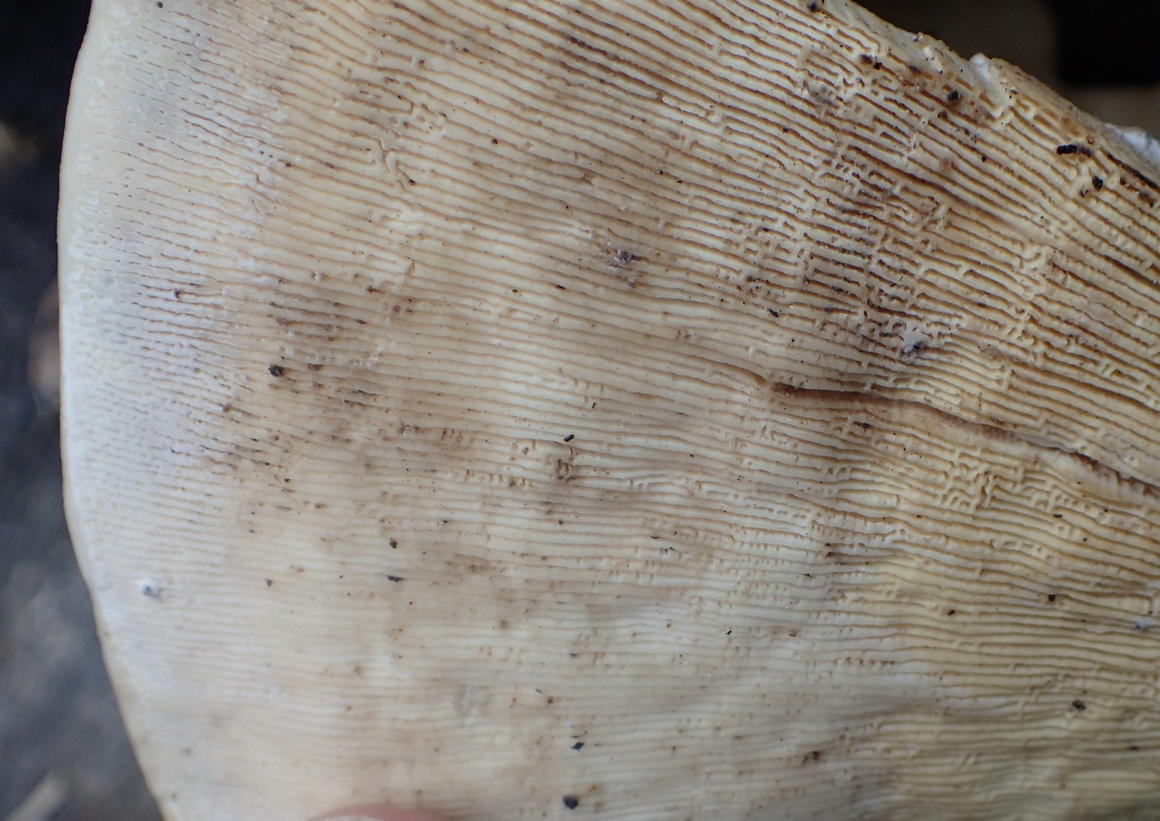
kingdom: Fungi
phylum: Basidiomycota
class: Agaricomycetes
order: Polyporales
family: Polyporaceae
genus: Trametes
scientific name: Trametes elegans
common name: White maze polypore
